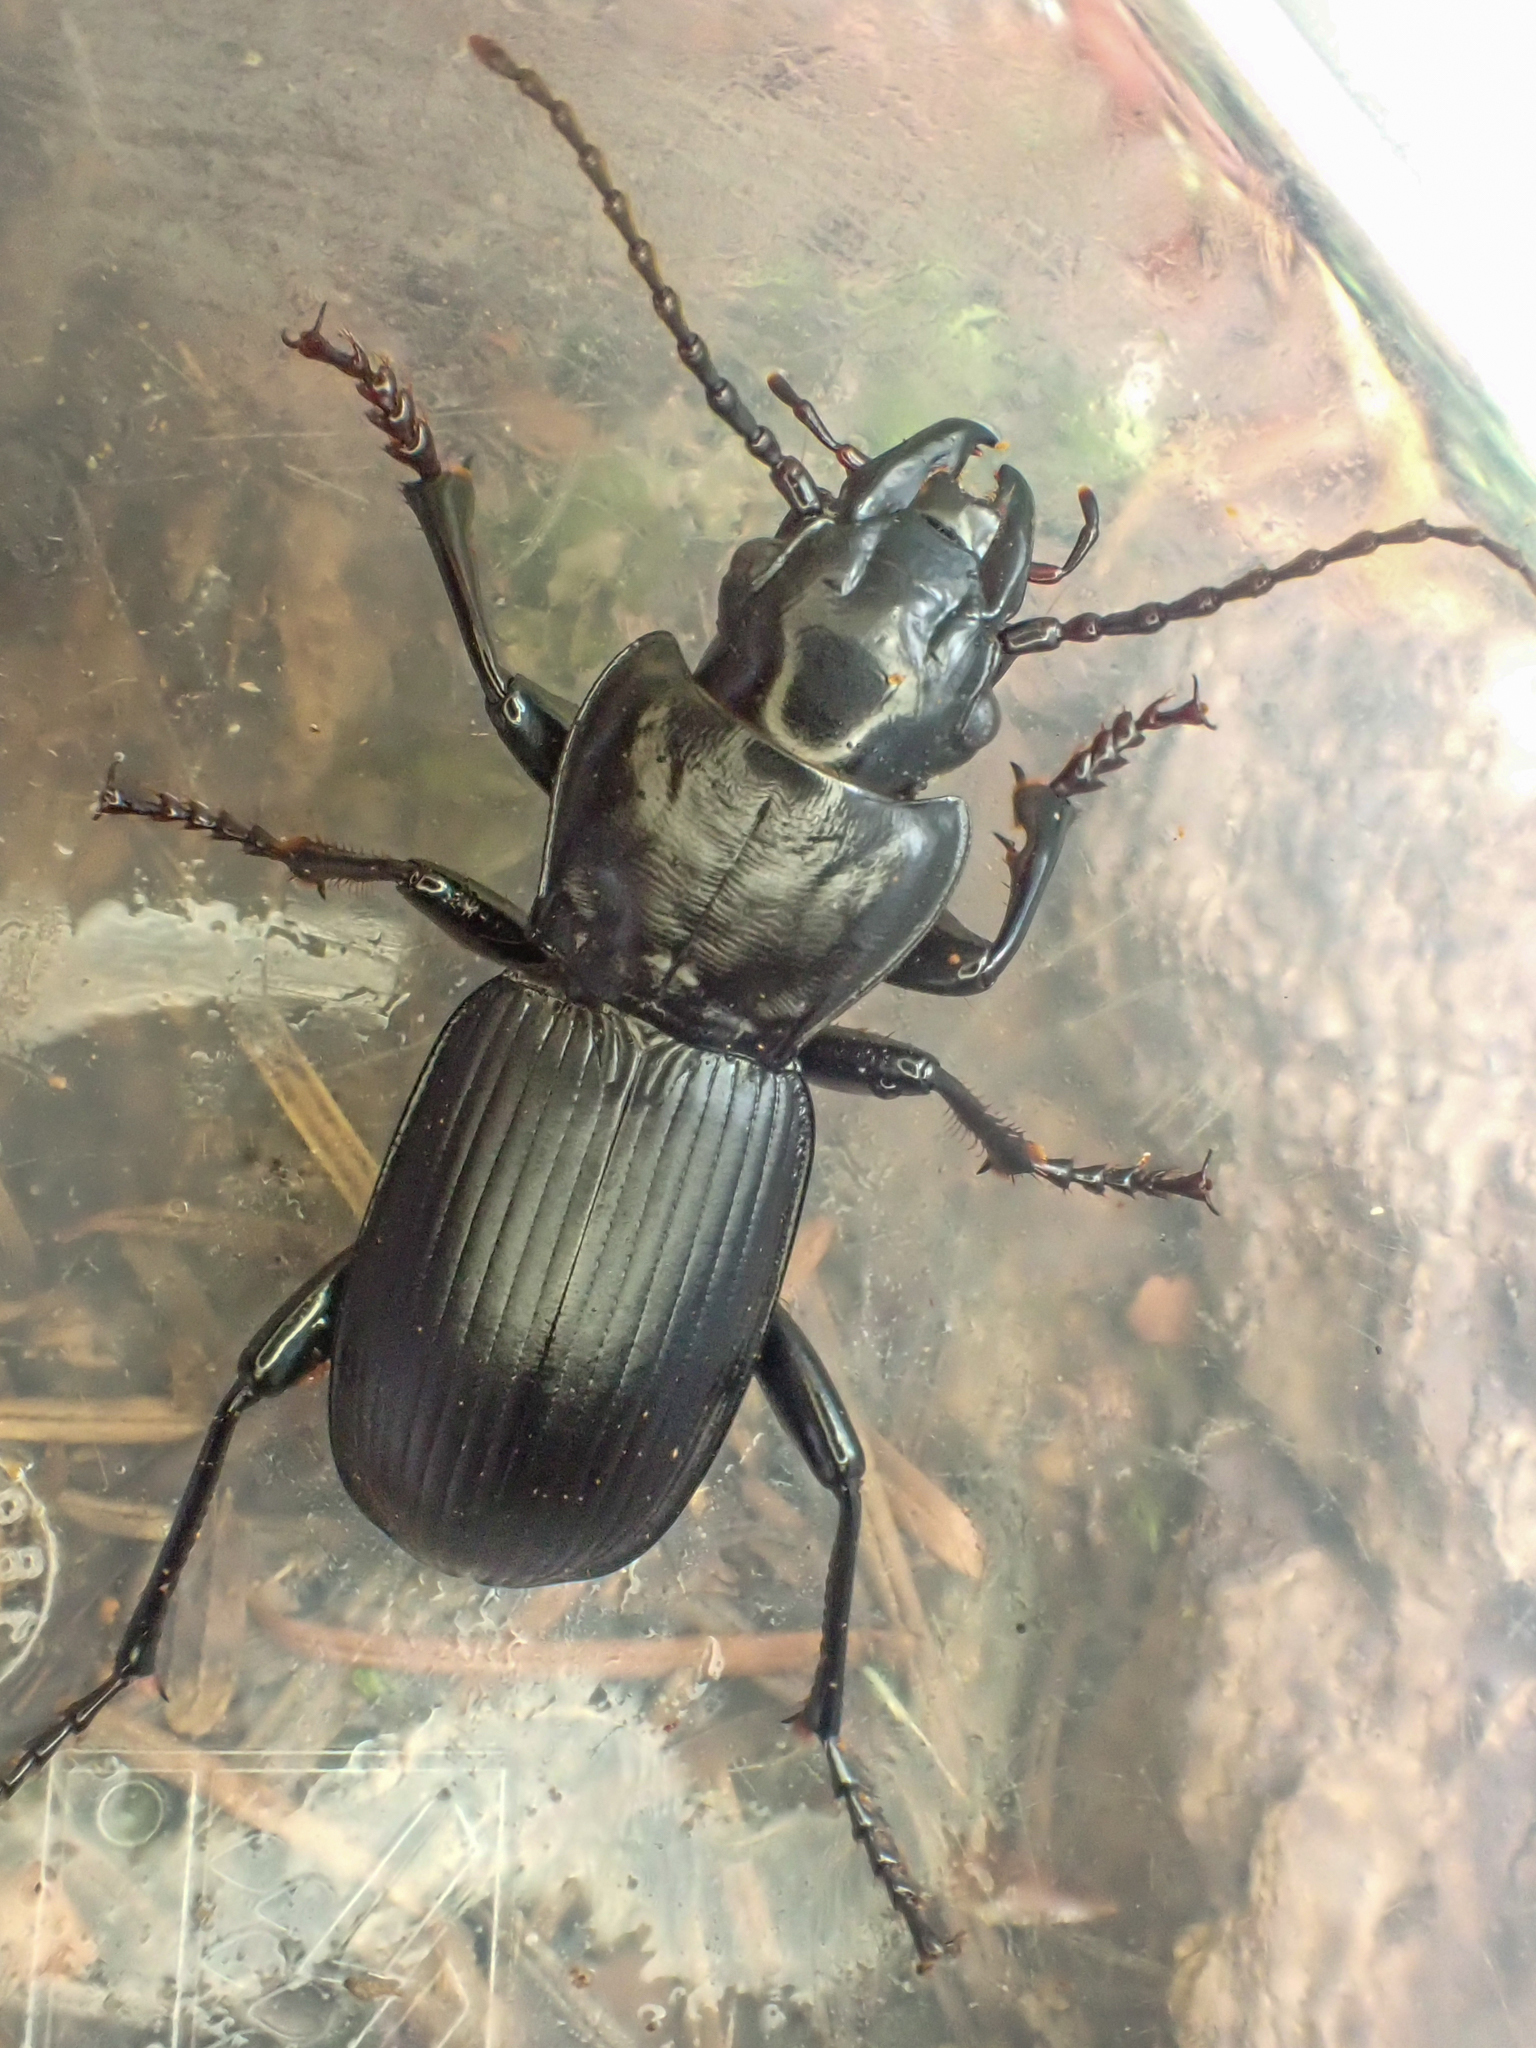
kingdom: Animalia
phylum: Arthropoda
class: Insecta
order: Coleoptera
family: Carabidae
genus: Pterostichus
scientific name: Pterostichus lama
